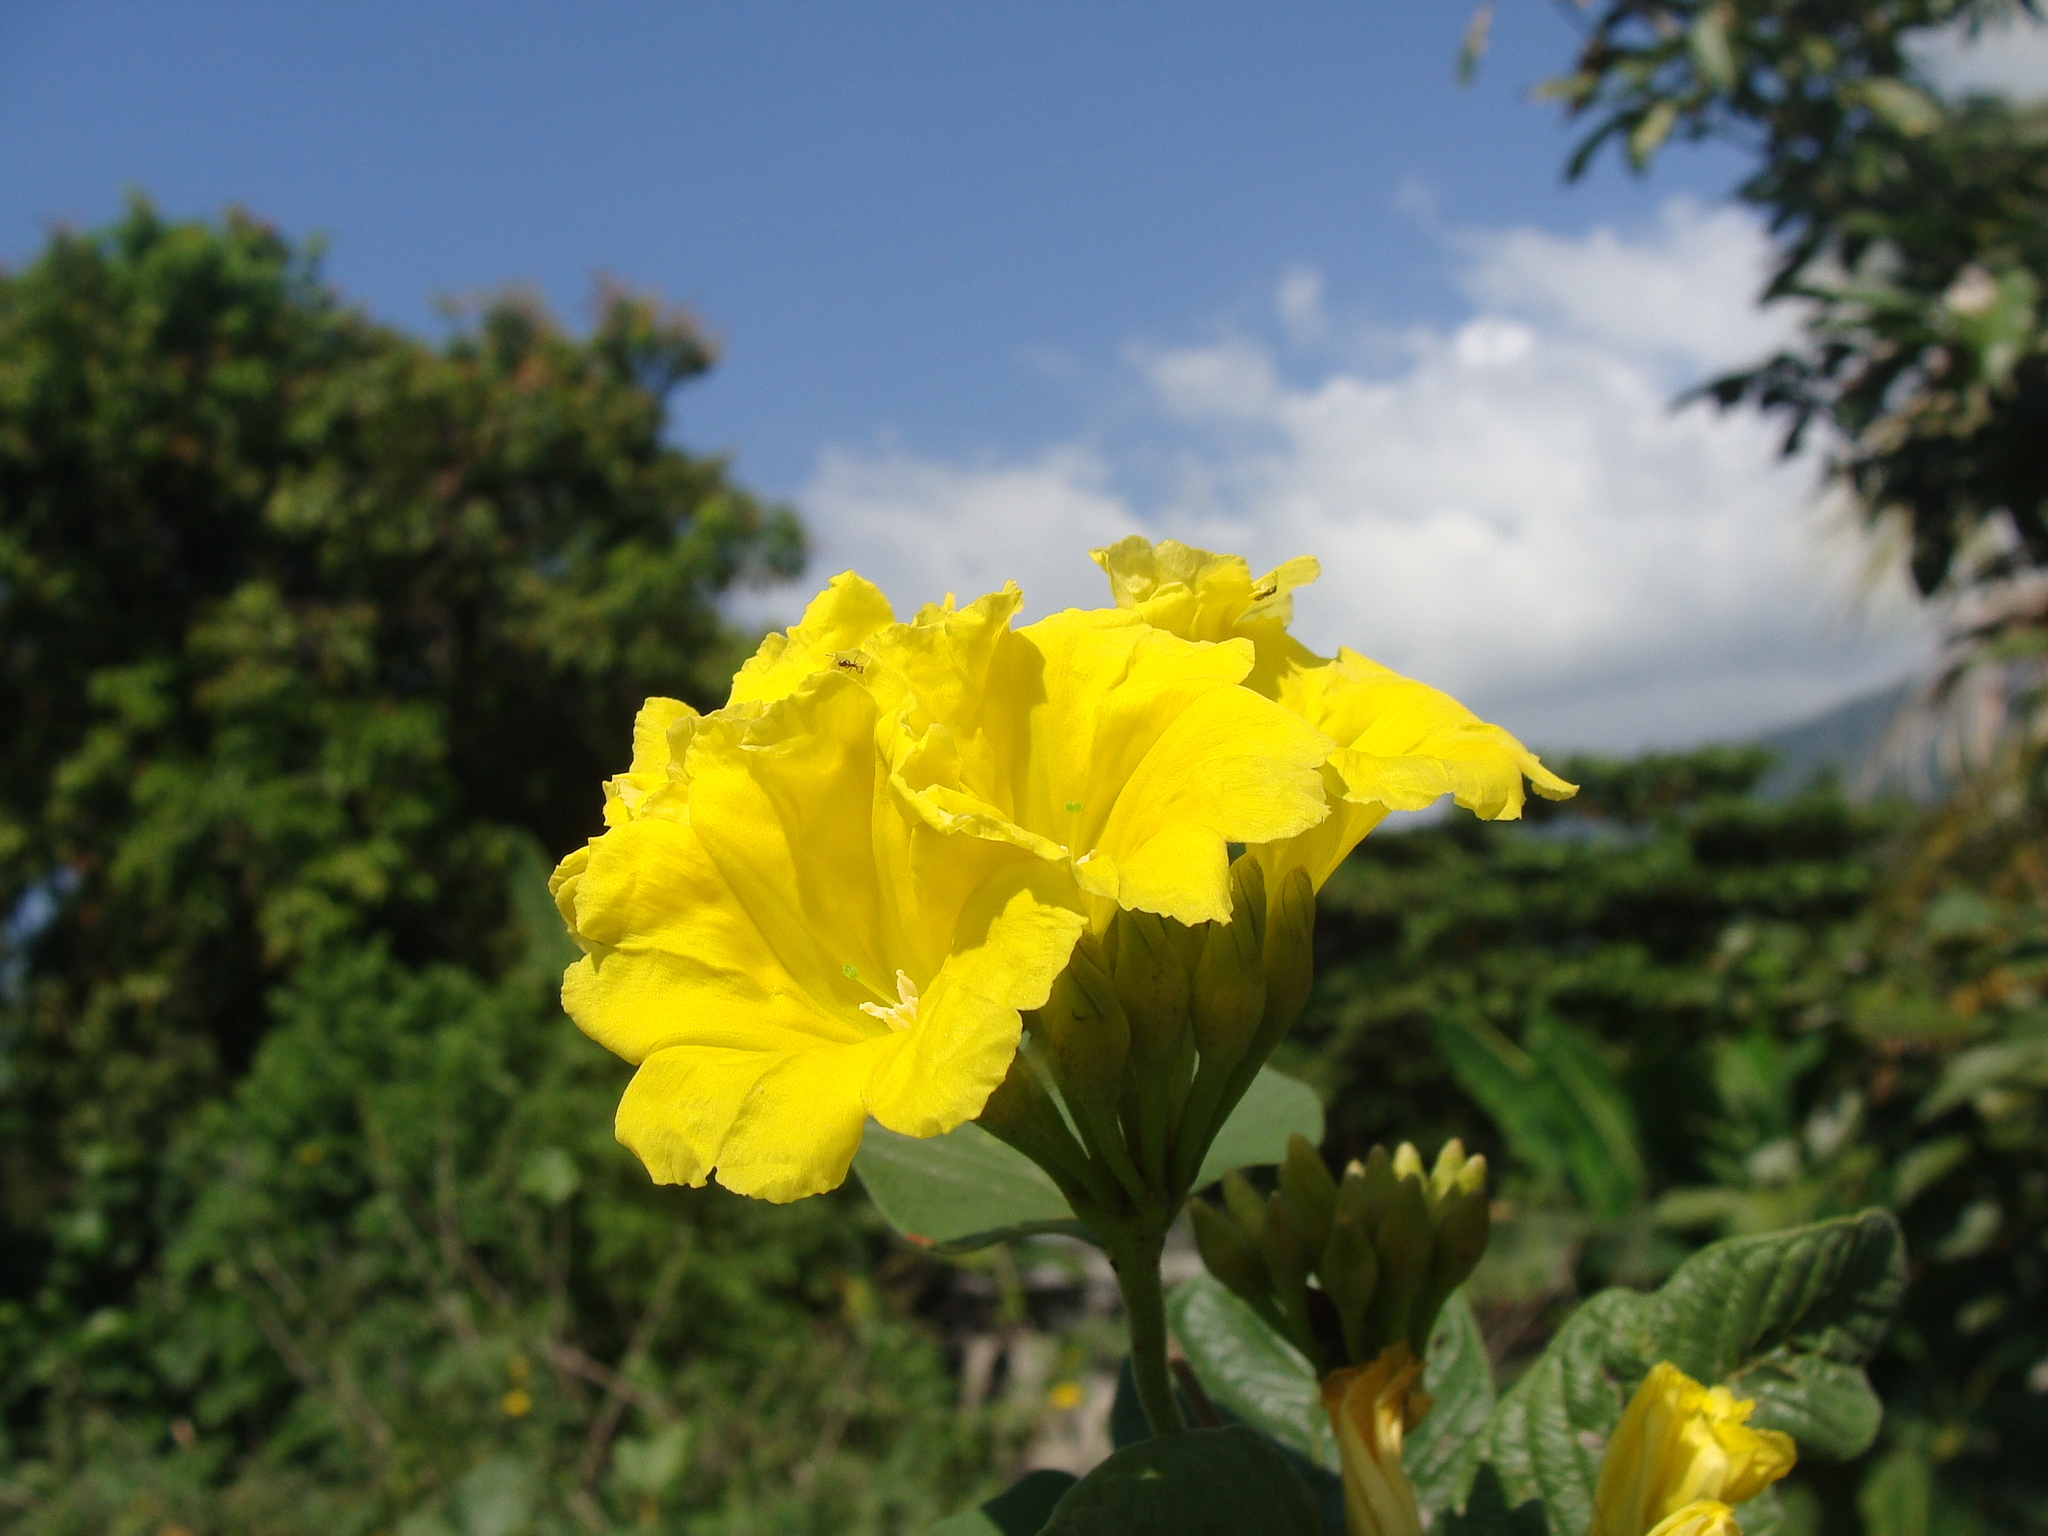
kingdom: Plantae
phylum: Tracheophyta
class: Magnoliopsida
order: Solanales
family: Convolvulaceae
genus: Camonea
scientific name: Camonea umbellata
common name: Hogvine
